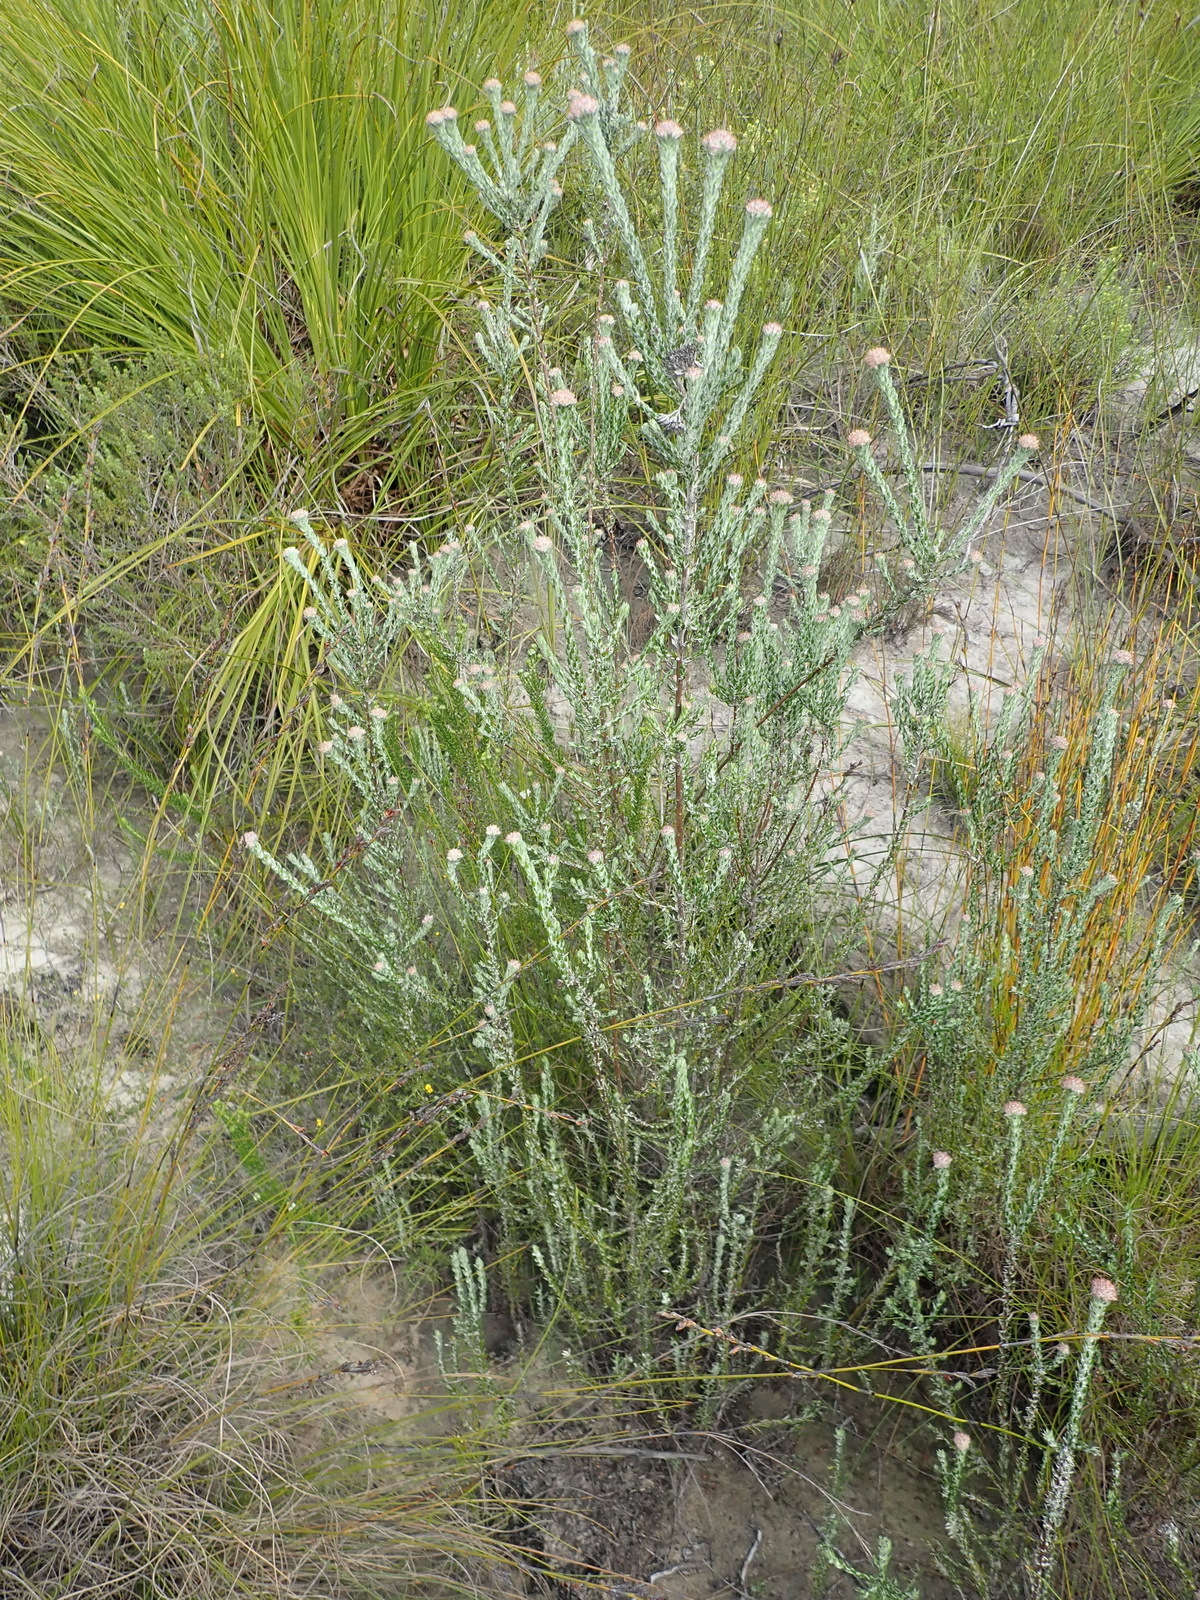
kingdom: Plantae
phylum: Tracheophyta
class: Magnoliopsida
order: Asterales
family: Asteraceae
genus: Metalasia
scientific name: Metalasia pungens
